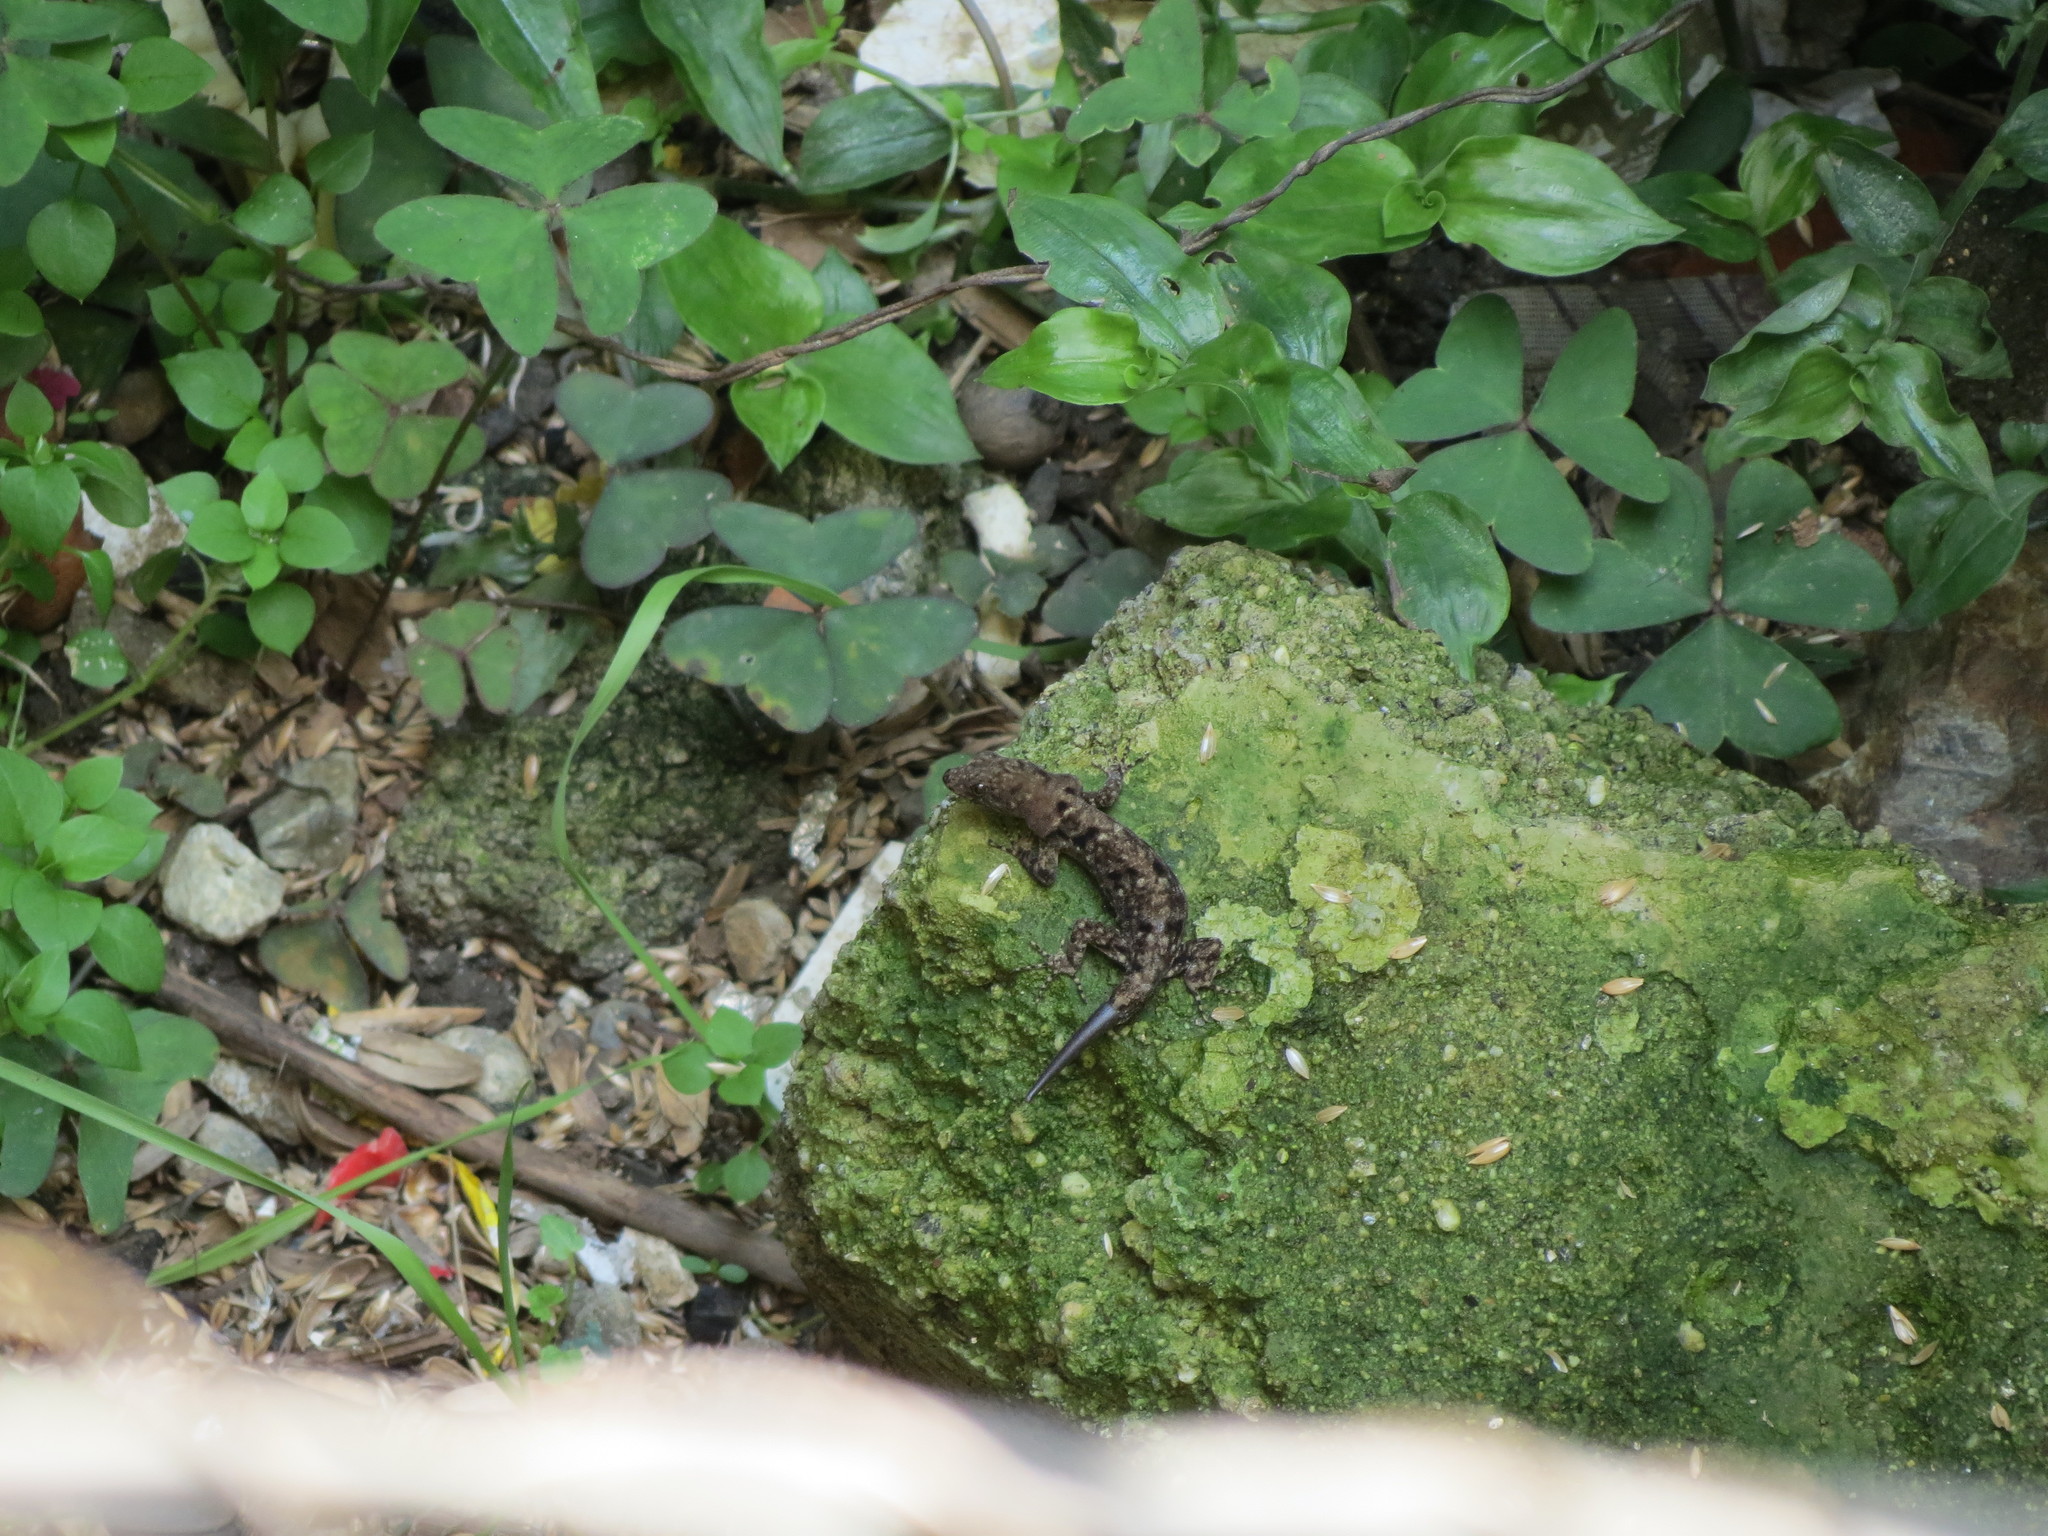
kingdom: Animalia
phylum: Chordata
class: Squamata
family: Sphaerodactylidae
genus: Gonatodes
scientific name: Gonatodes albogularis
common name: Yellow-headed gecko
